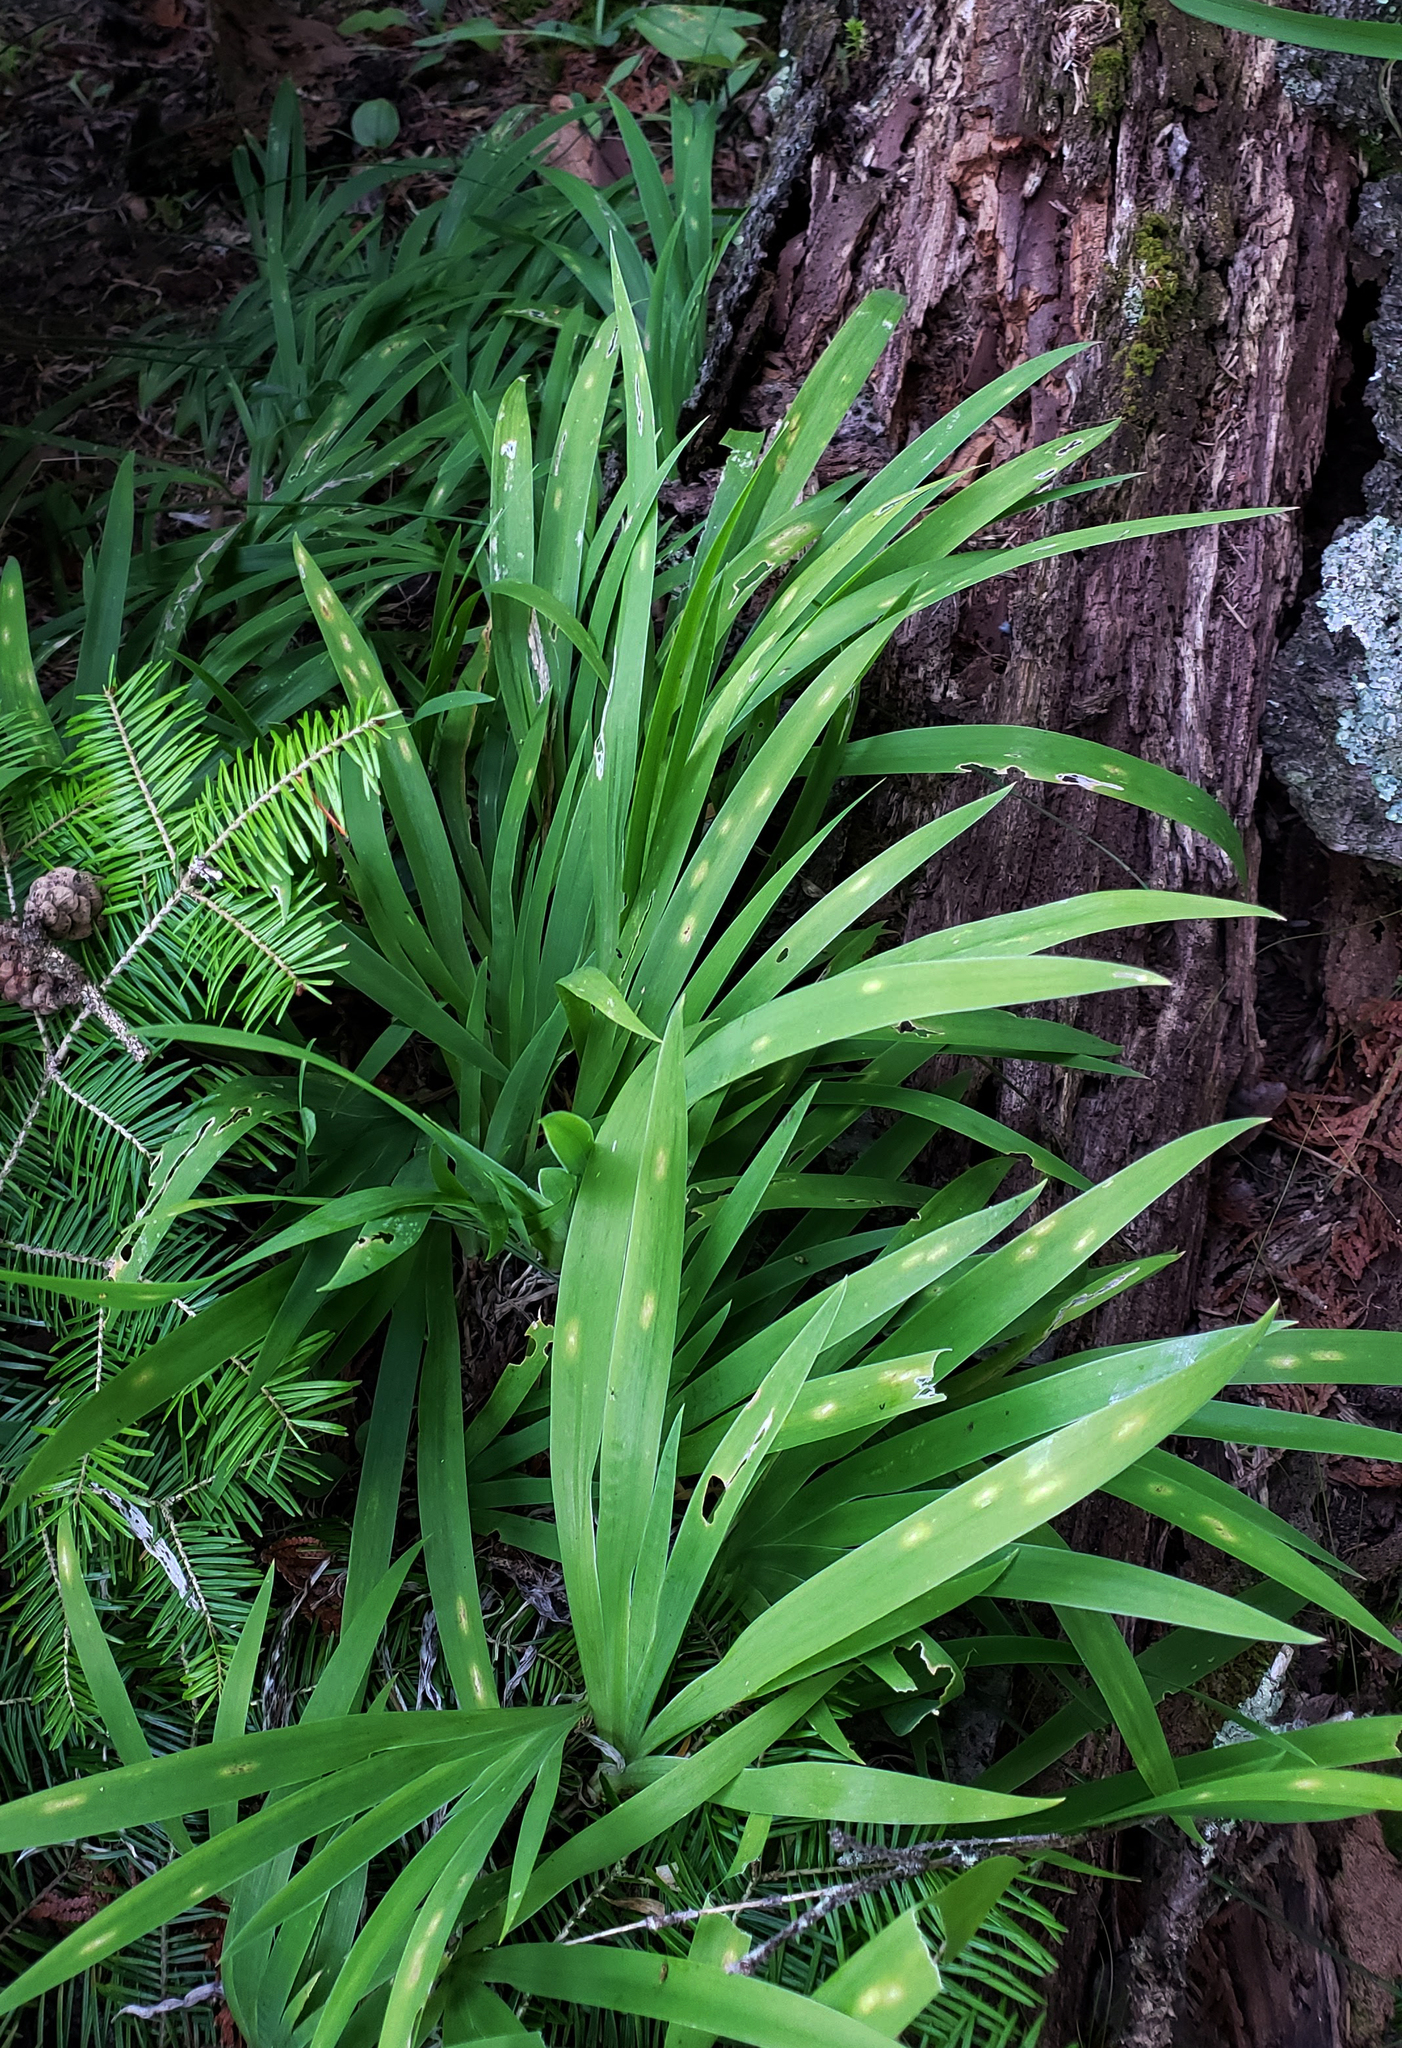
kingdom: Plantae
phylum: Tracheophyta
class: Liliopsida
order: Asparagales
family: Iridaceae
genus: Iris
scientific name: Iris lacustris
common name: Dwarf lake iris
